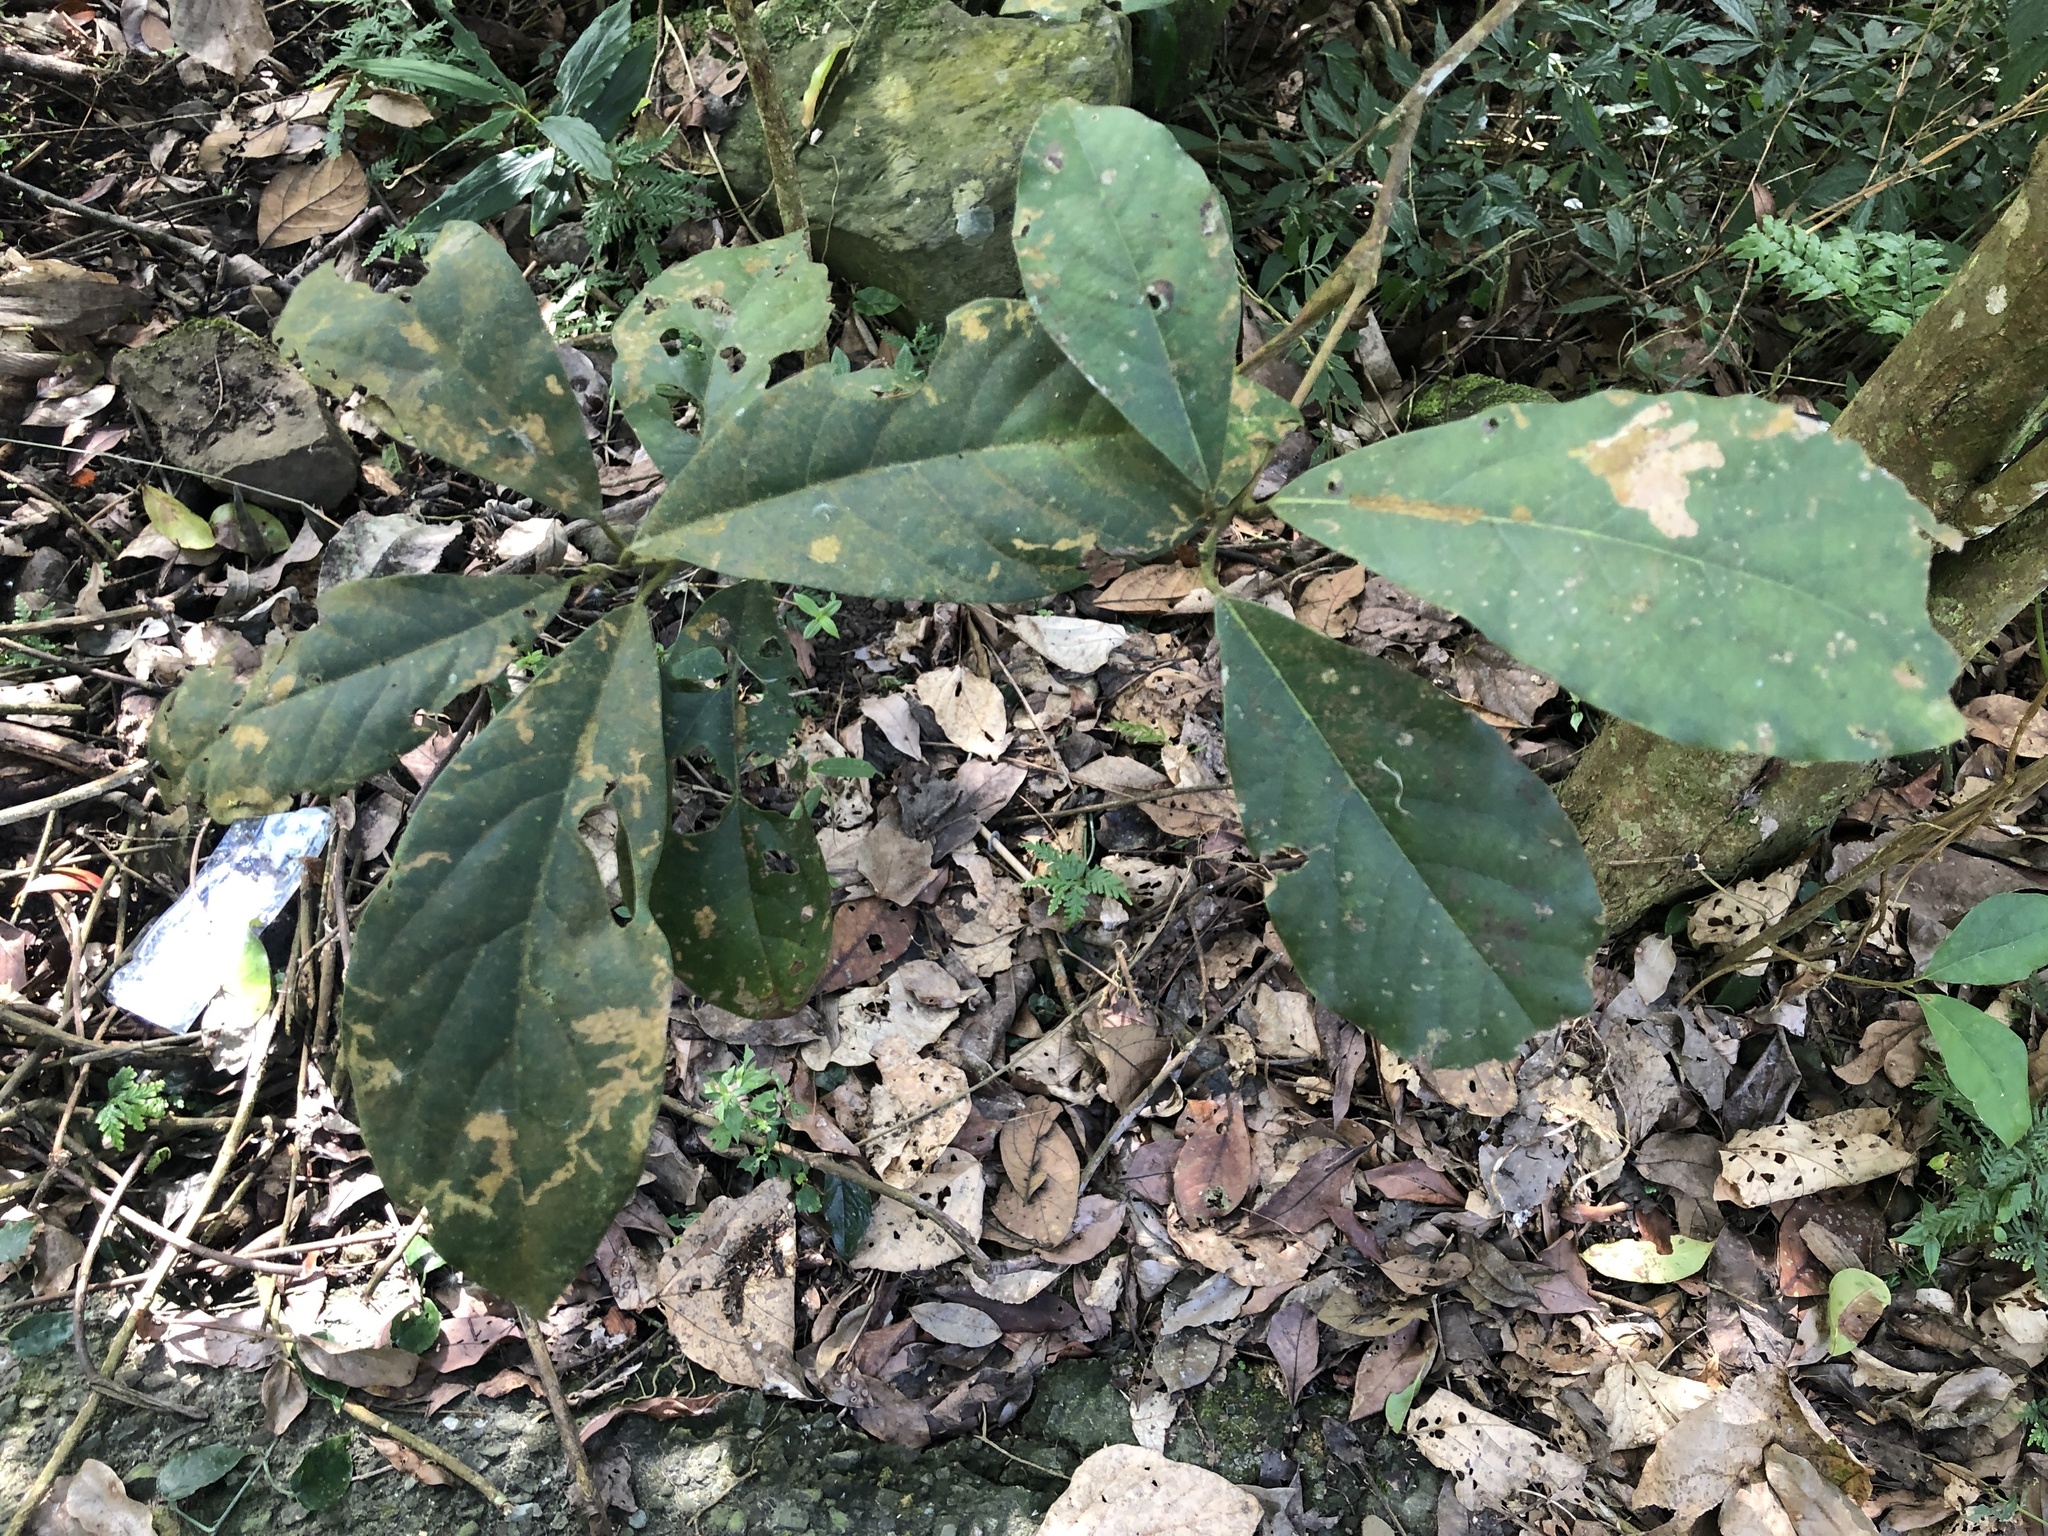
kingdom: Plantae
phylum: Tracheophyta
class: Magnoliopsida
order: Laurales
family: Lauraceae
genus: Litsea
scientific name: Litsea akoensis
